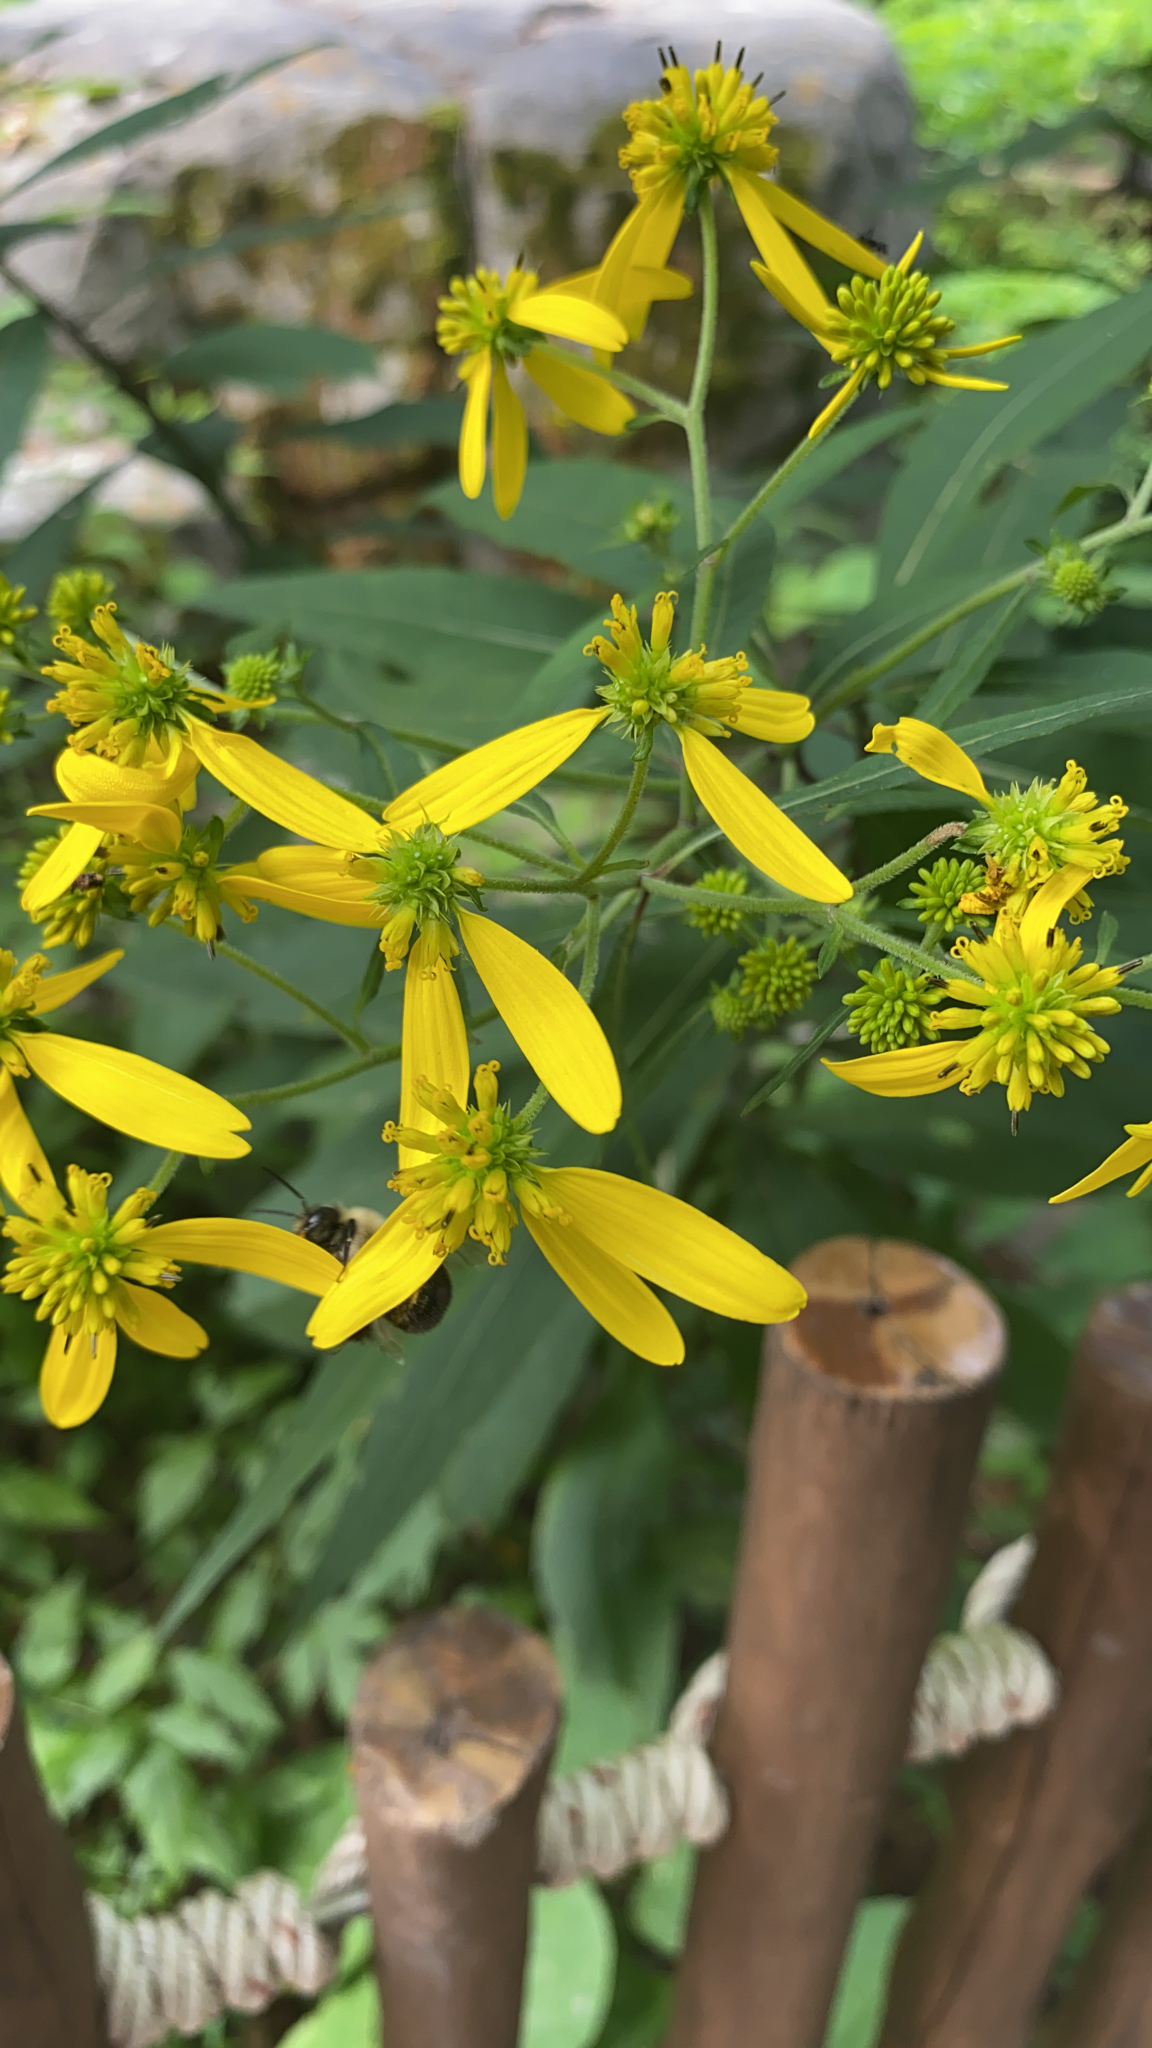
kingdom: Plantae
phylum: Tracheophyta
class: Magnoliopsida
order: Asterales
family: Asteraceae
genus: Verbesina
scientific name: Verbesina alternifolia
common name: Wingstem
